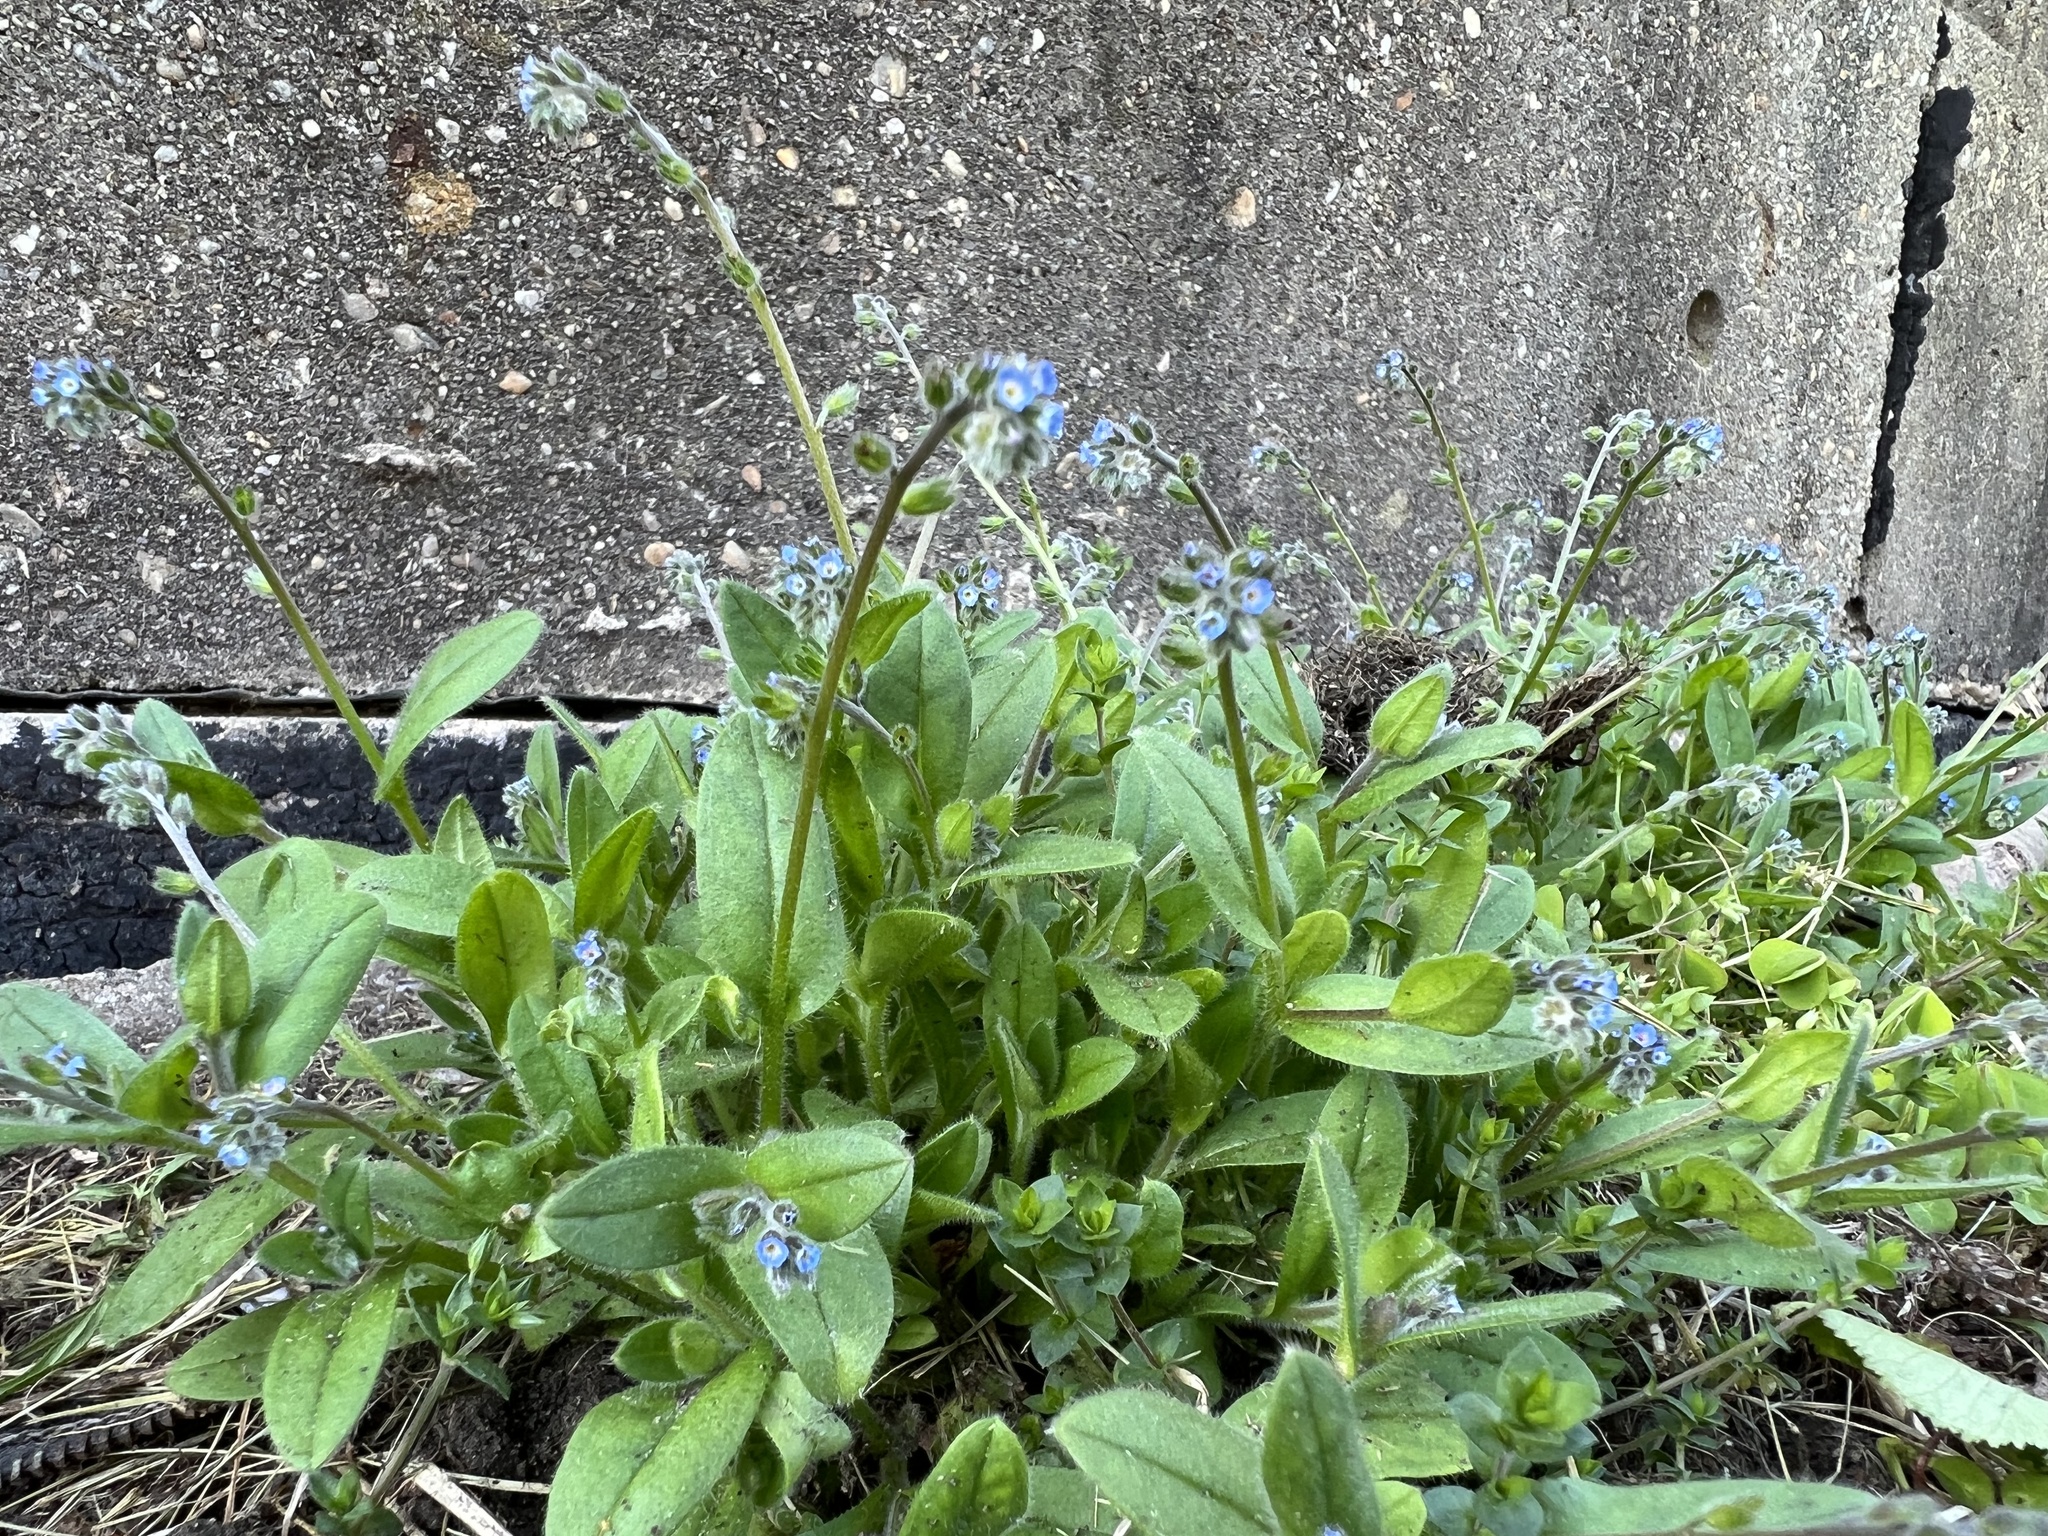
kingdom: Plantae
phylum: Tracheophyta
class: Magnoliopsida
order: Boraginales
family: Boraginaceae
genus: Myosotis
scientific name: Myosotis ramosissima
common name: Early forget-me-not
